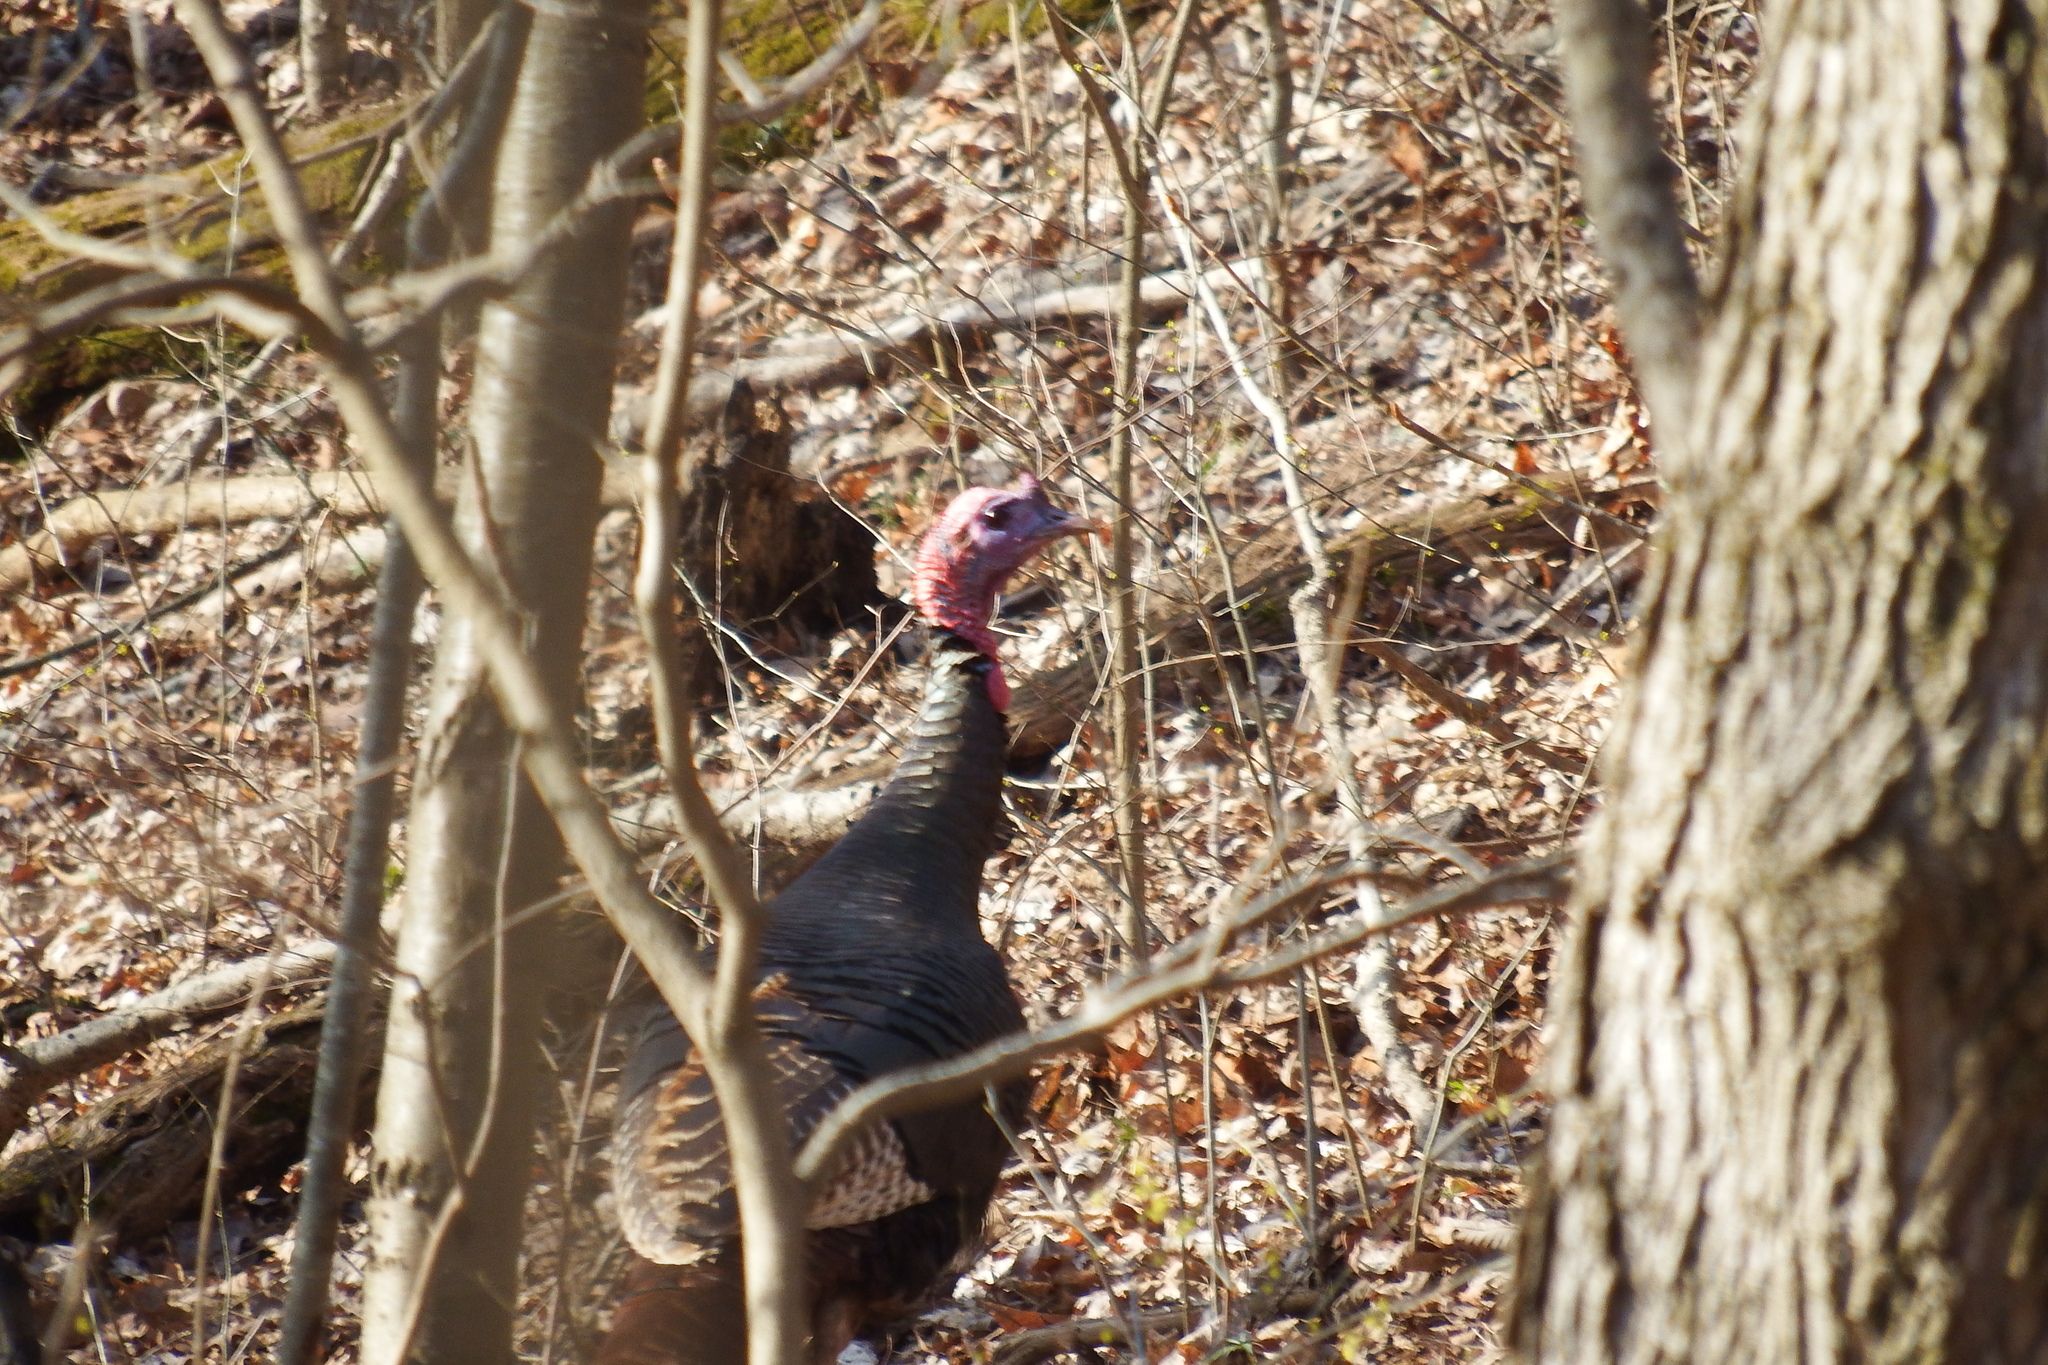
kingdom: Animalia
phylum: Chordata
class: Aves
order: Galliformes
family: Phasianidae
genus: Meleagris
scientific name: Meleagris gallopavo
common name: Wild turkey
